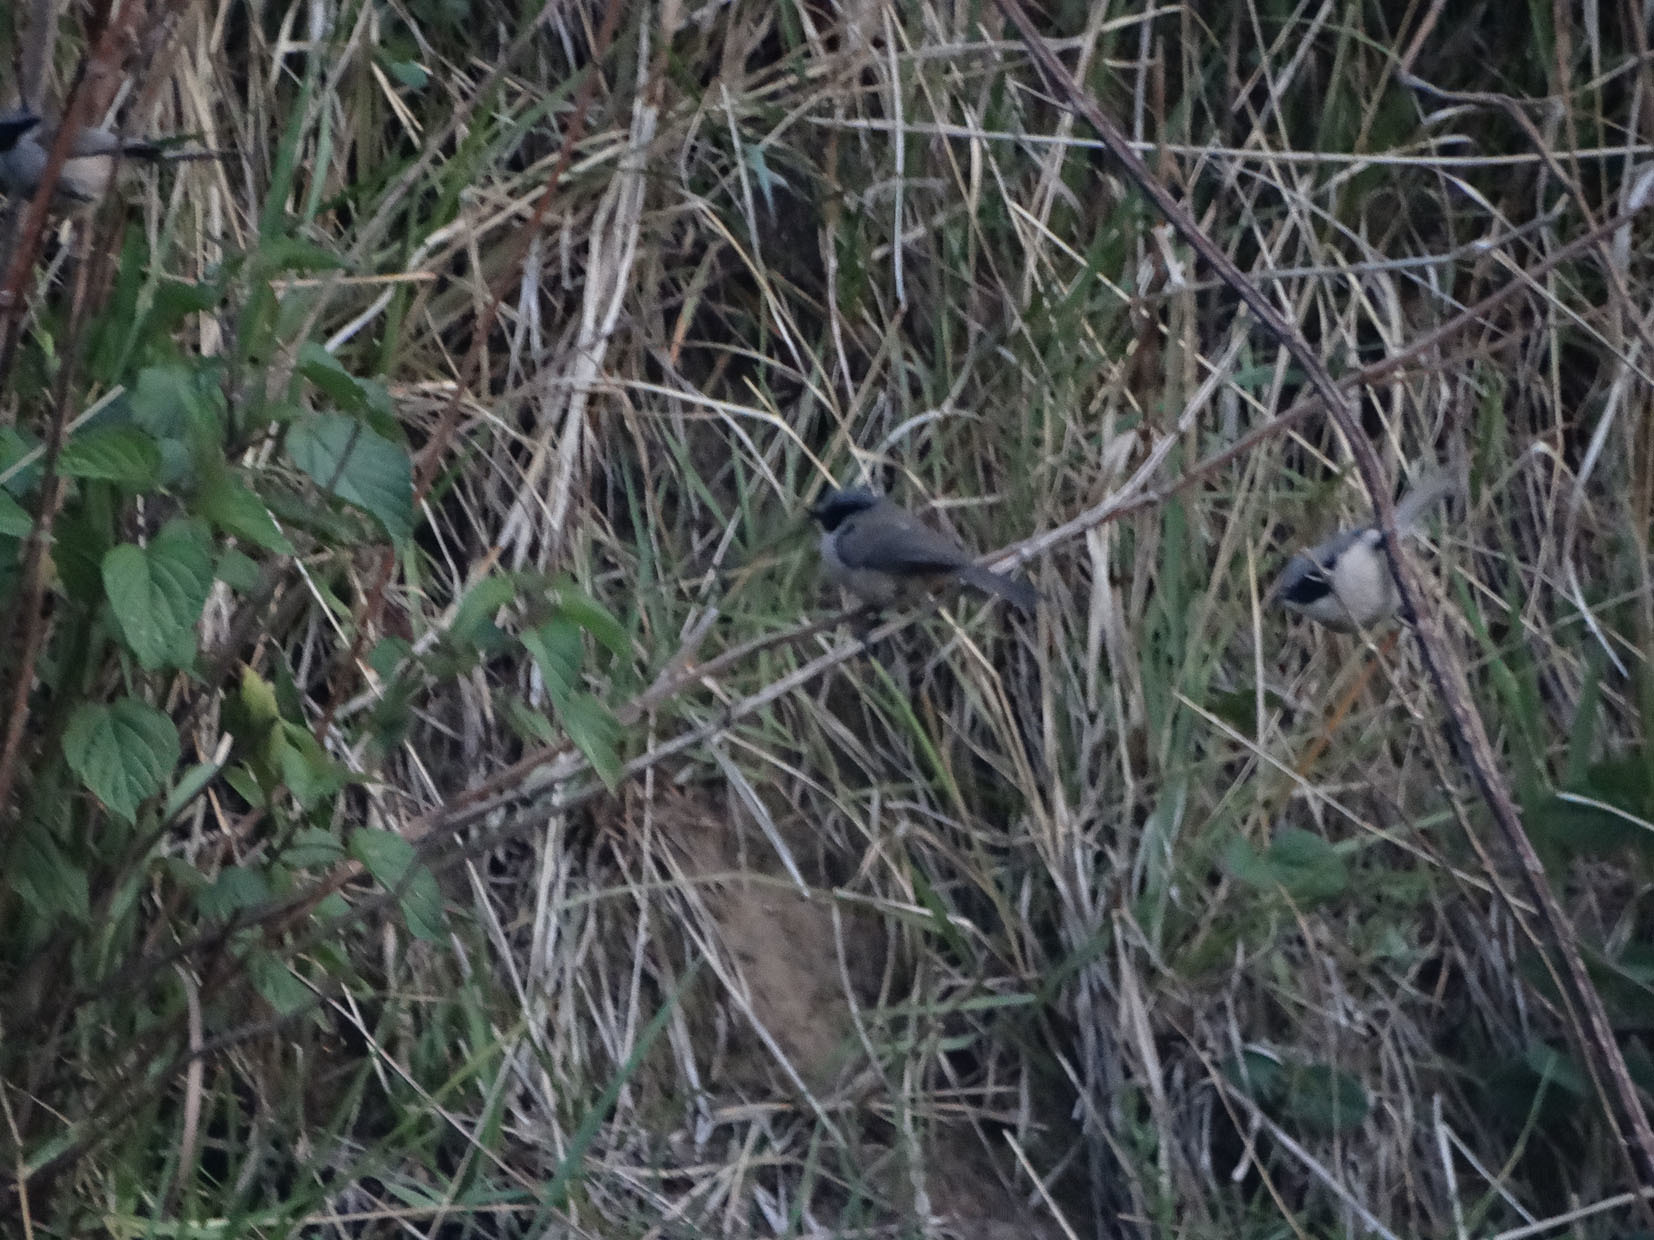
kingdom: Animalia
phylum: Chordata
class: Aves
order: Passeriformes
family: Aegithalidae
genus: Psaltriparus
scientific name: Psaltriparus minimus
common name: American bushtit
